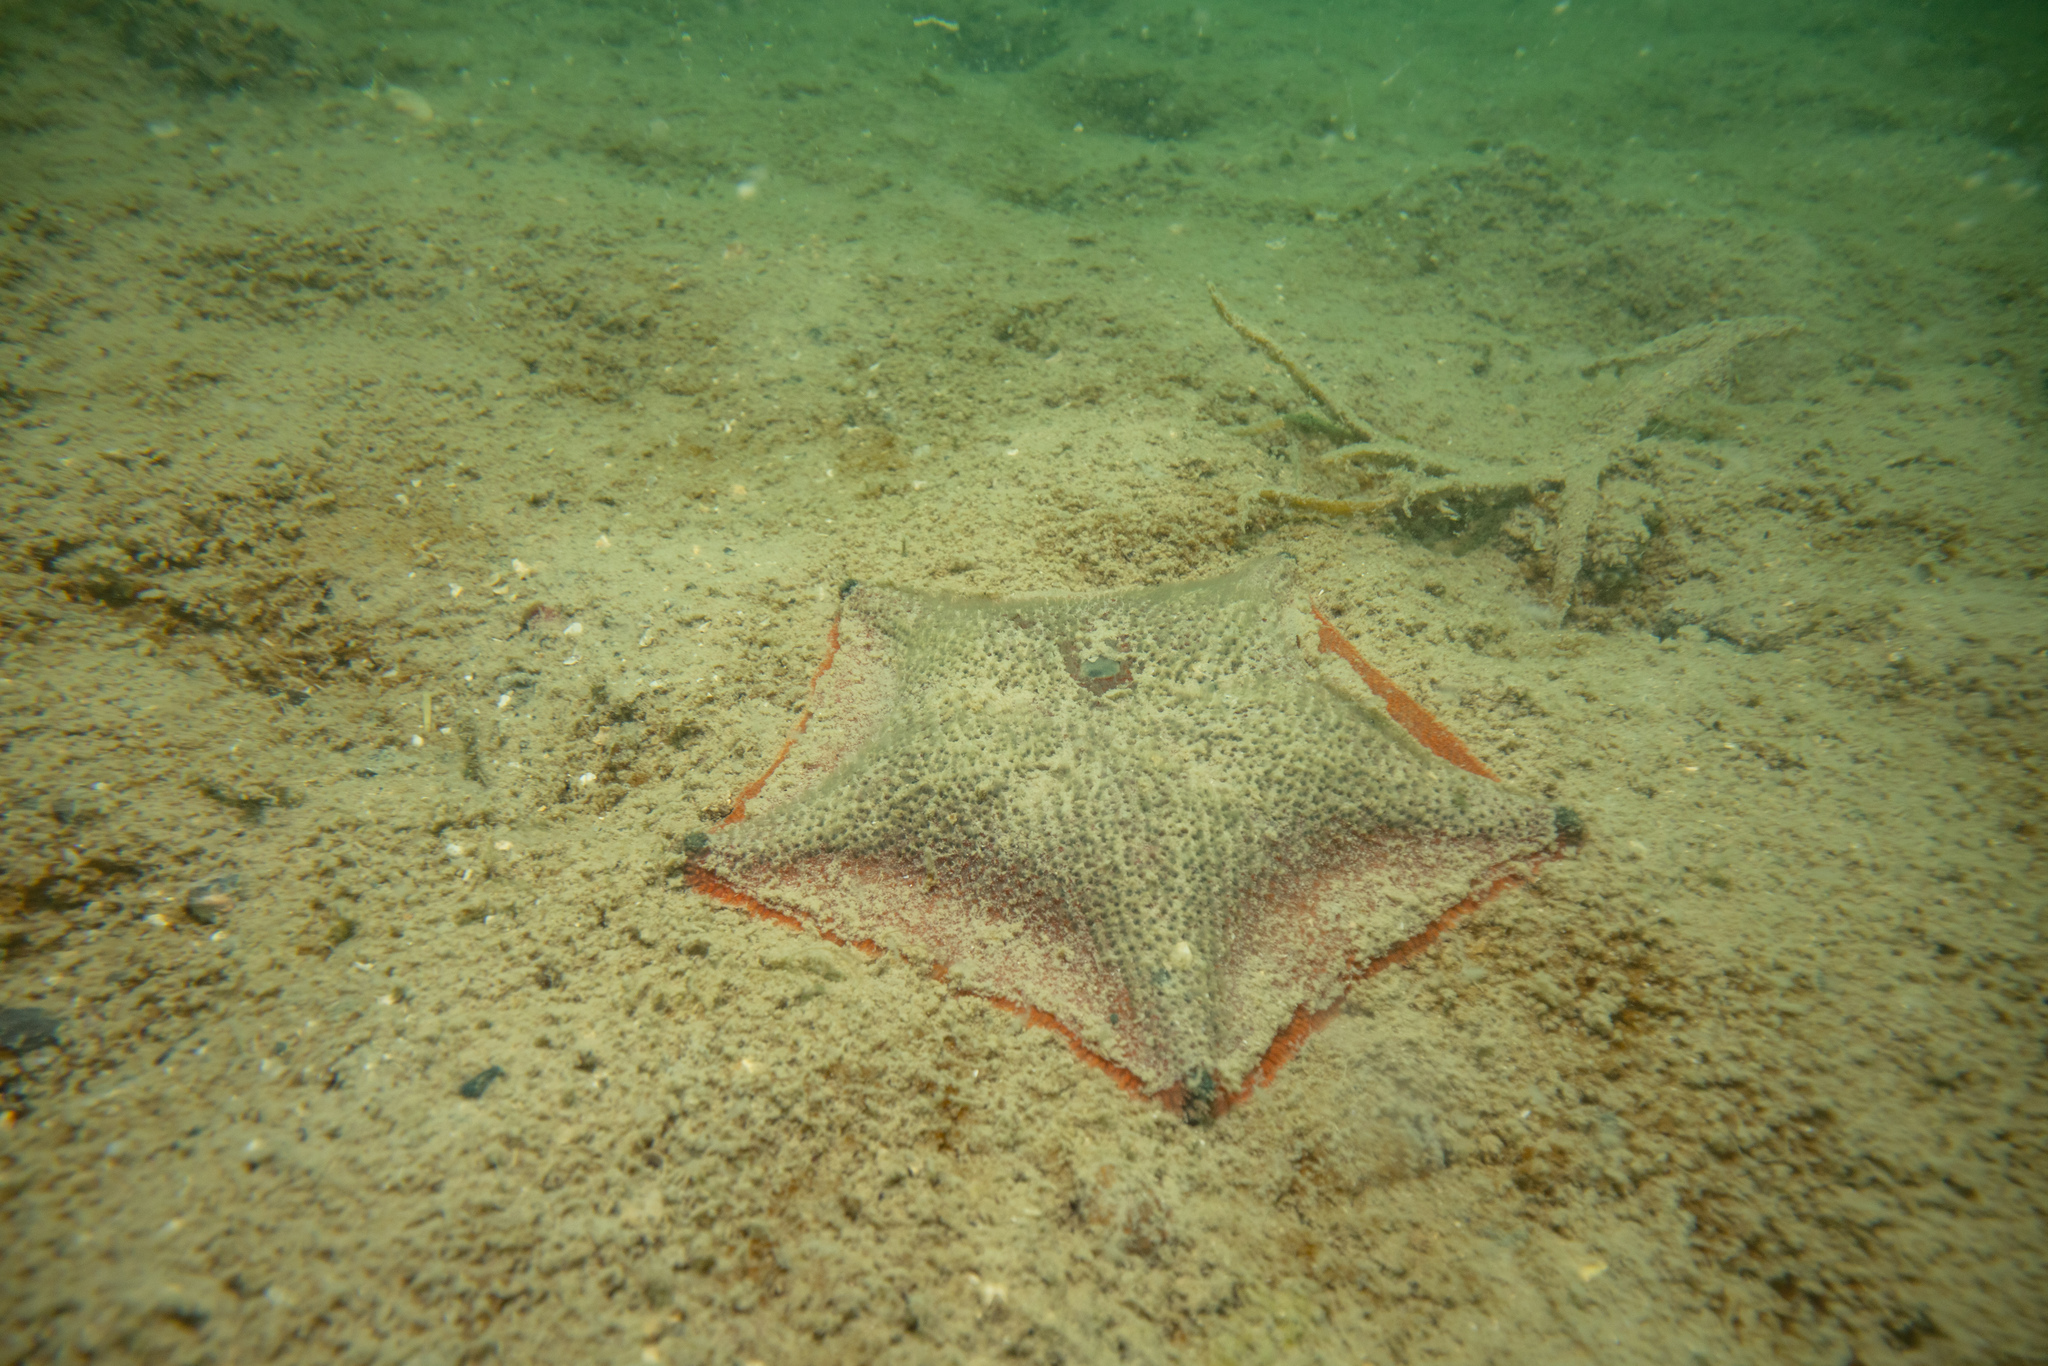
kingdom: Animalia
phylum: Echinodermata
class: Asteroidea
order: Valvatida
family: Asterinidae
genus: Patiriella
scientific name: Patiriella regularis
